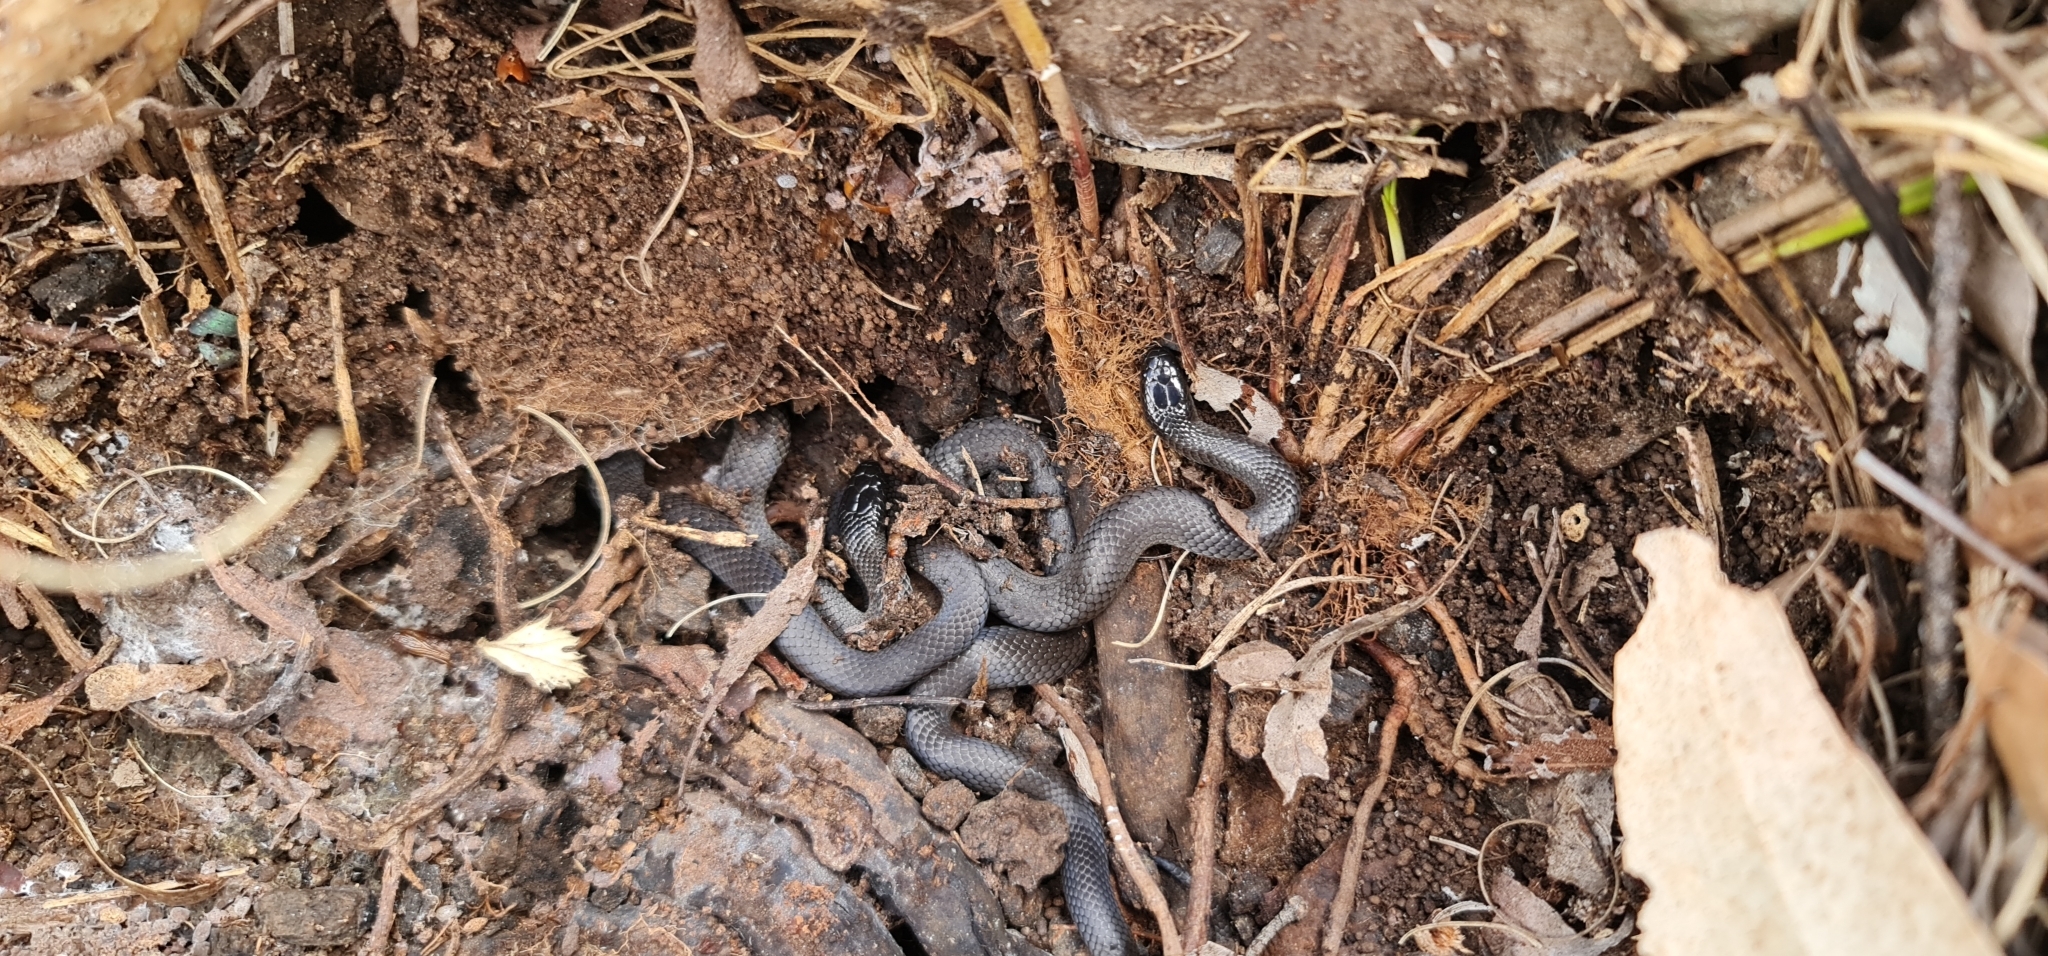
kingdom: Animalia
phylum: Chordata
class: Squamata
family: Elapidae
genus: Cryptophis
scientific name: Cryptophis nigrescens
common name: Eastern small-eyed snake
